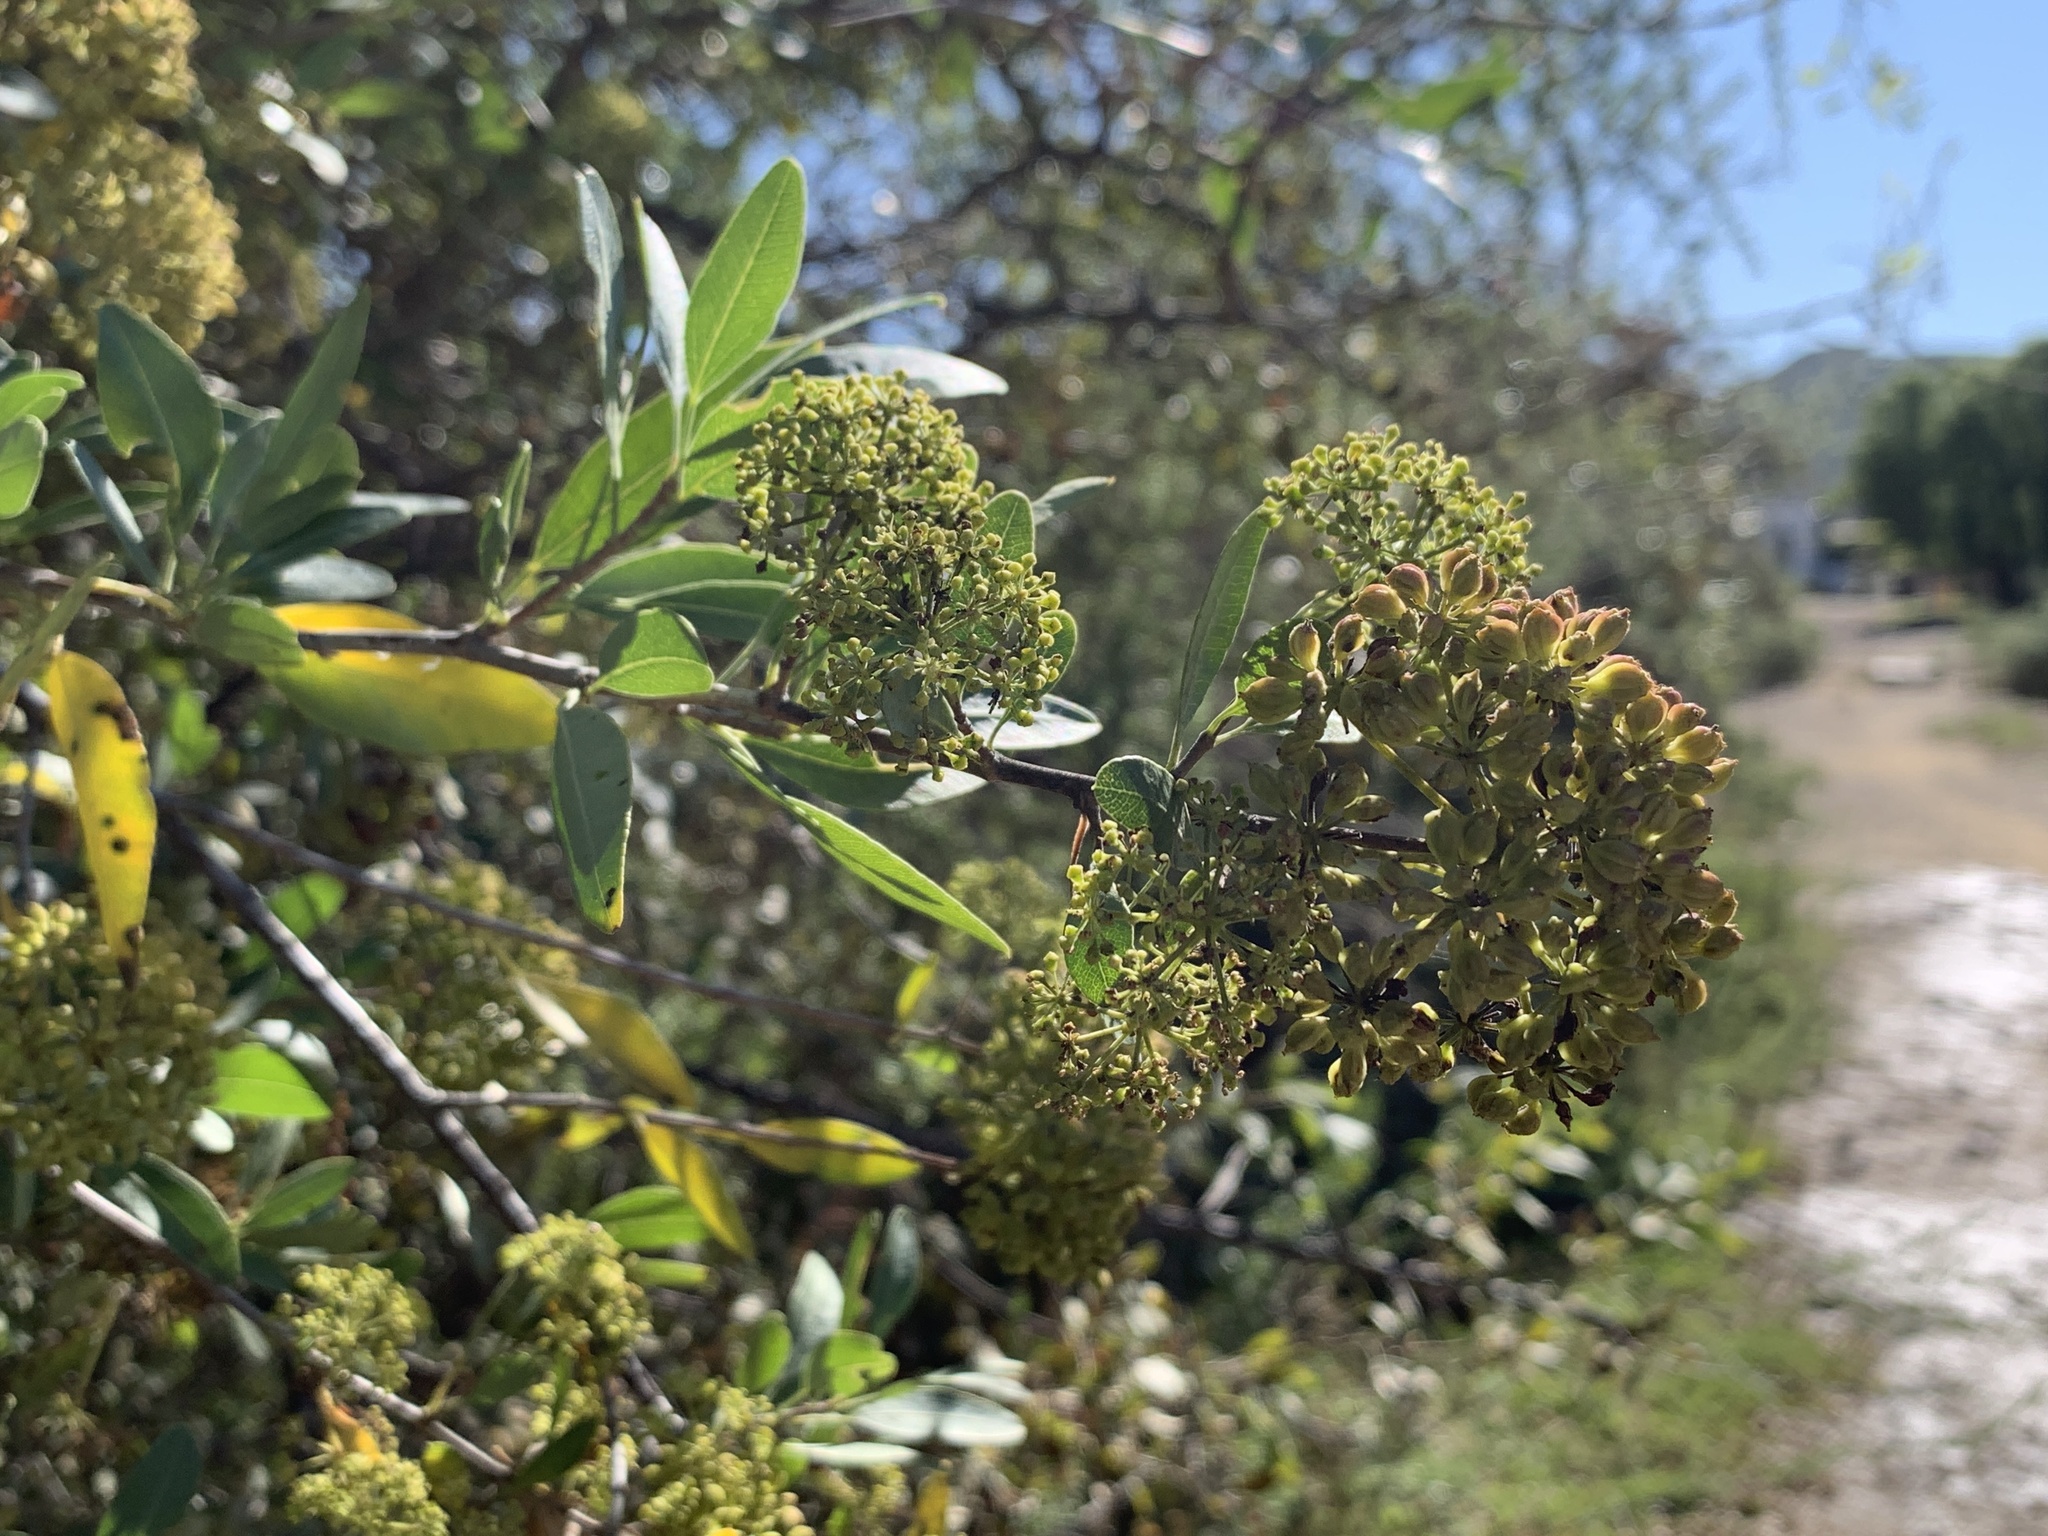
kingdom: Plantae
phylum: Tracheophyta
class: Magnoliopsida
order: Apiales
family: Apiaceae
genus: Heteromorpha
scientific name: Heteromorpha arborescens
